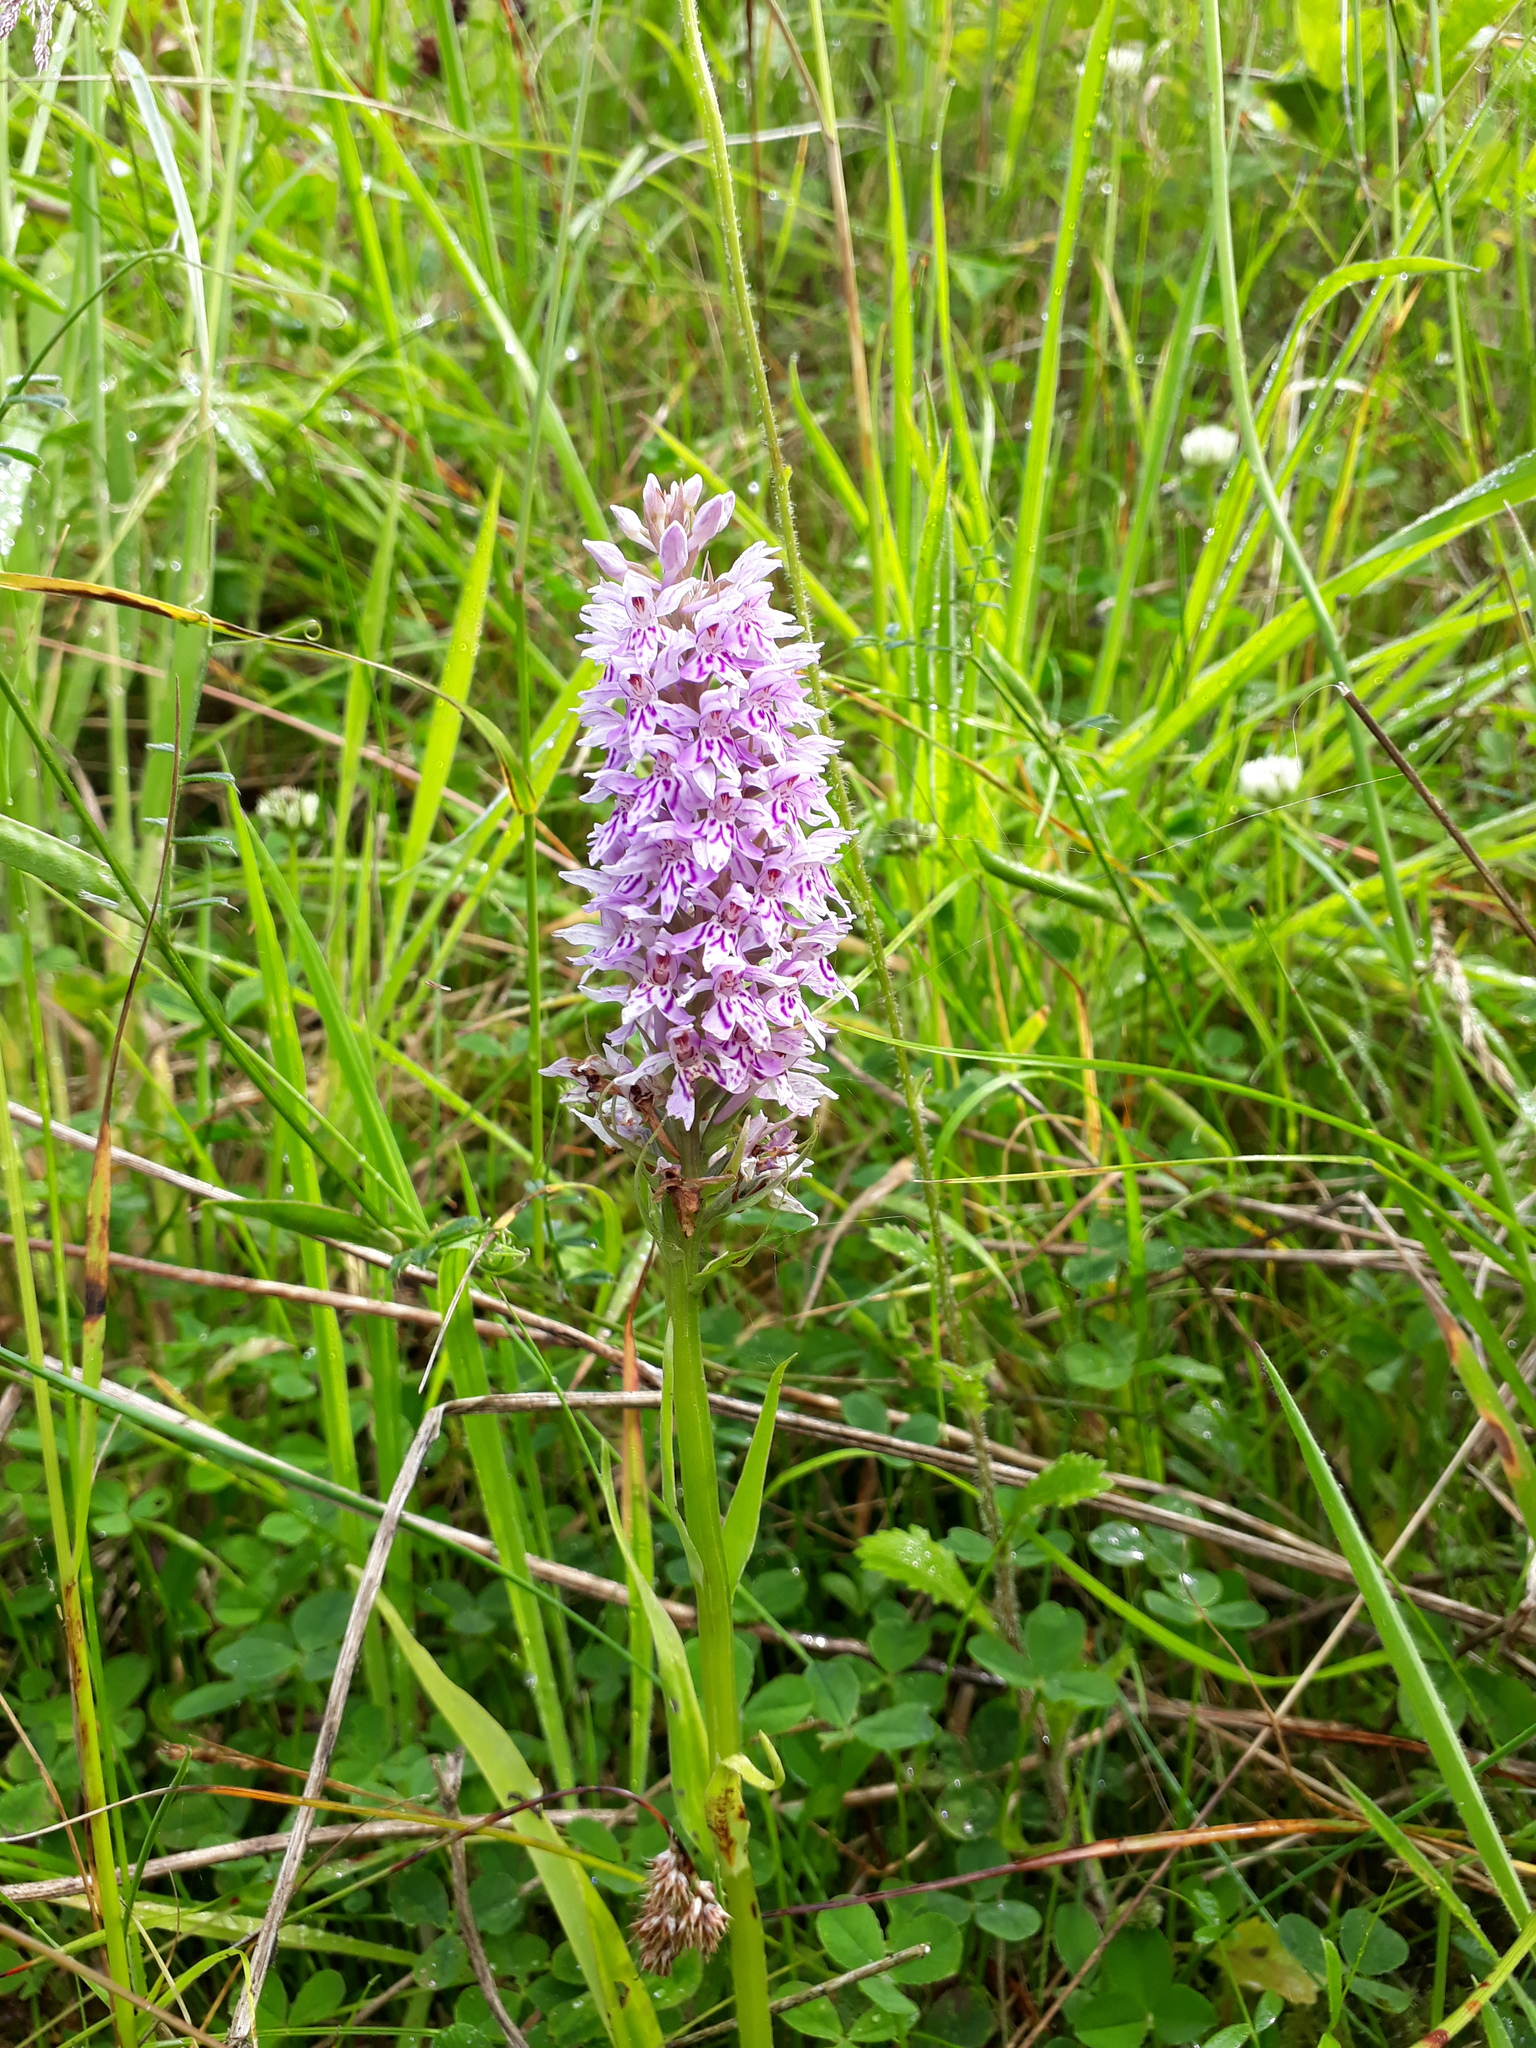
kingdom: Plantae
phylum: Tracheophyta
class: Liliopsida
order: Asparagales
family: Orchidaceae
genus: Dactylorhiza
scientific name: Dactylorhiza maculata
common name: Heath spotted-orchid
